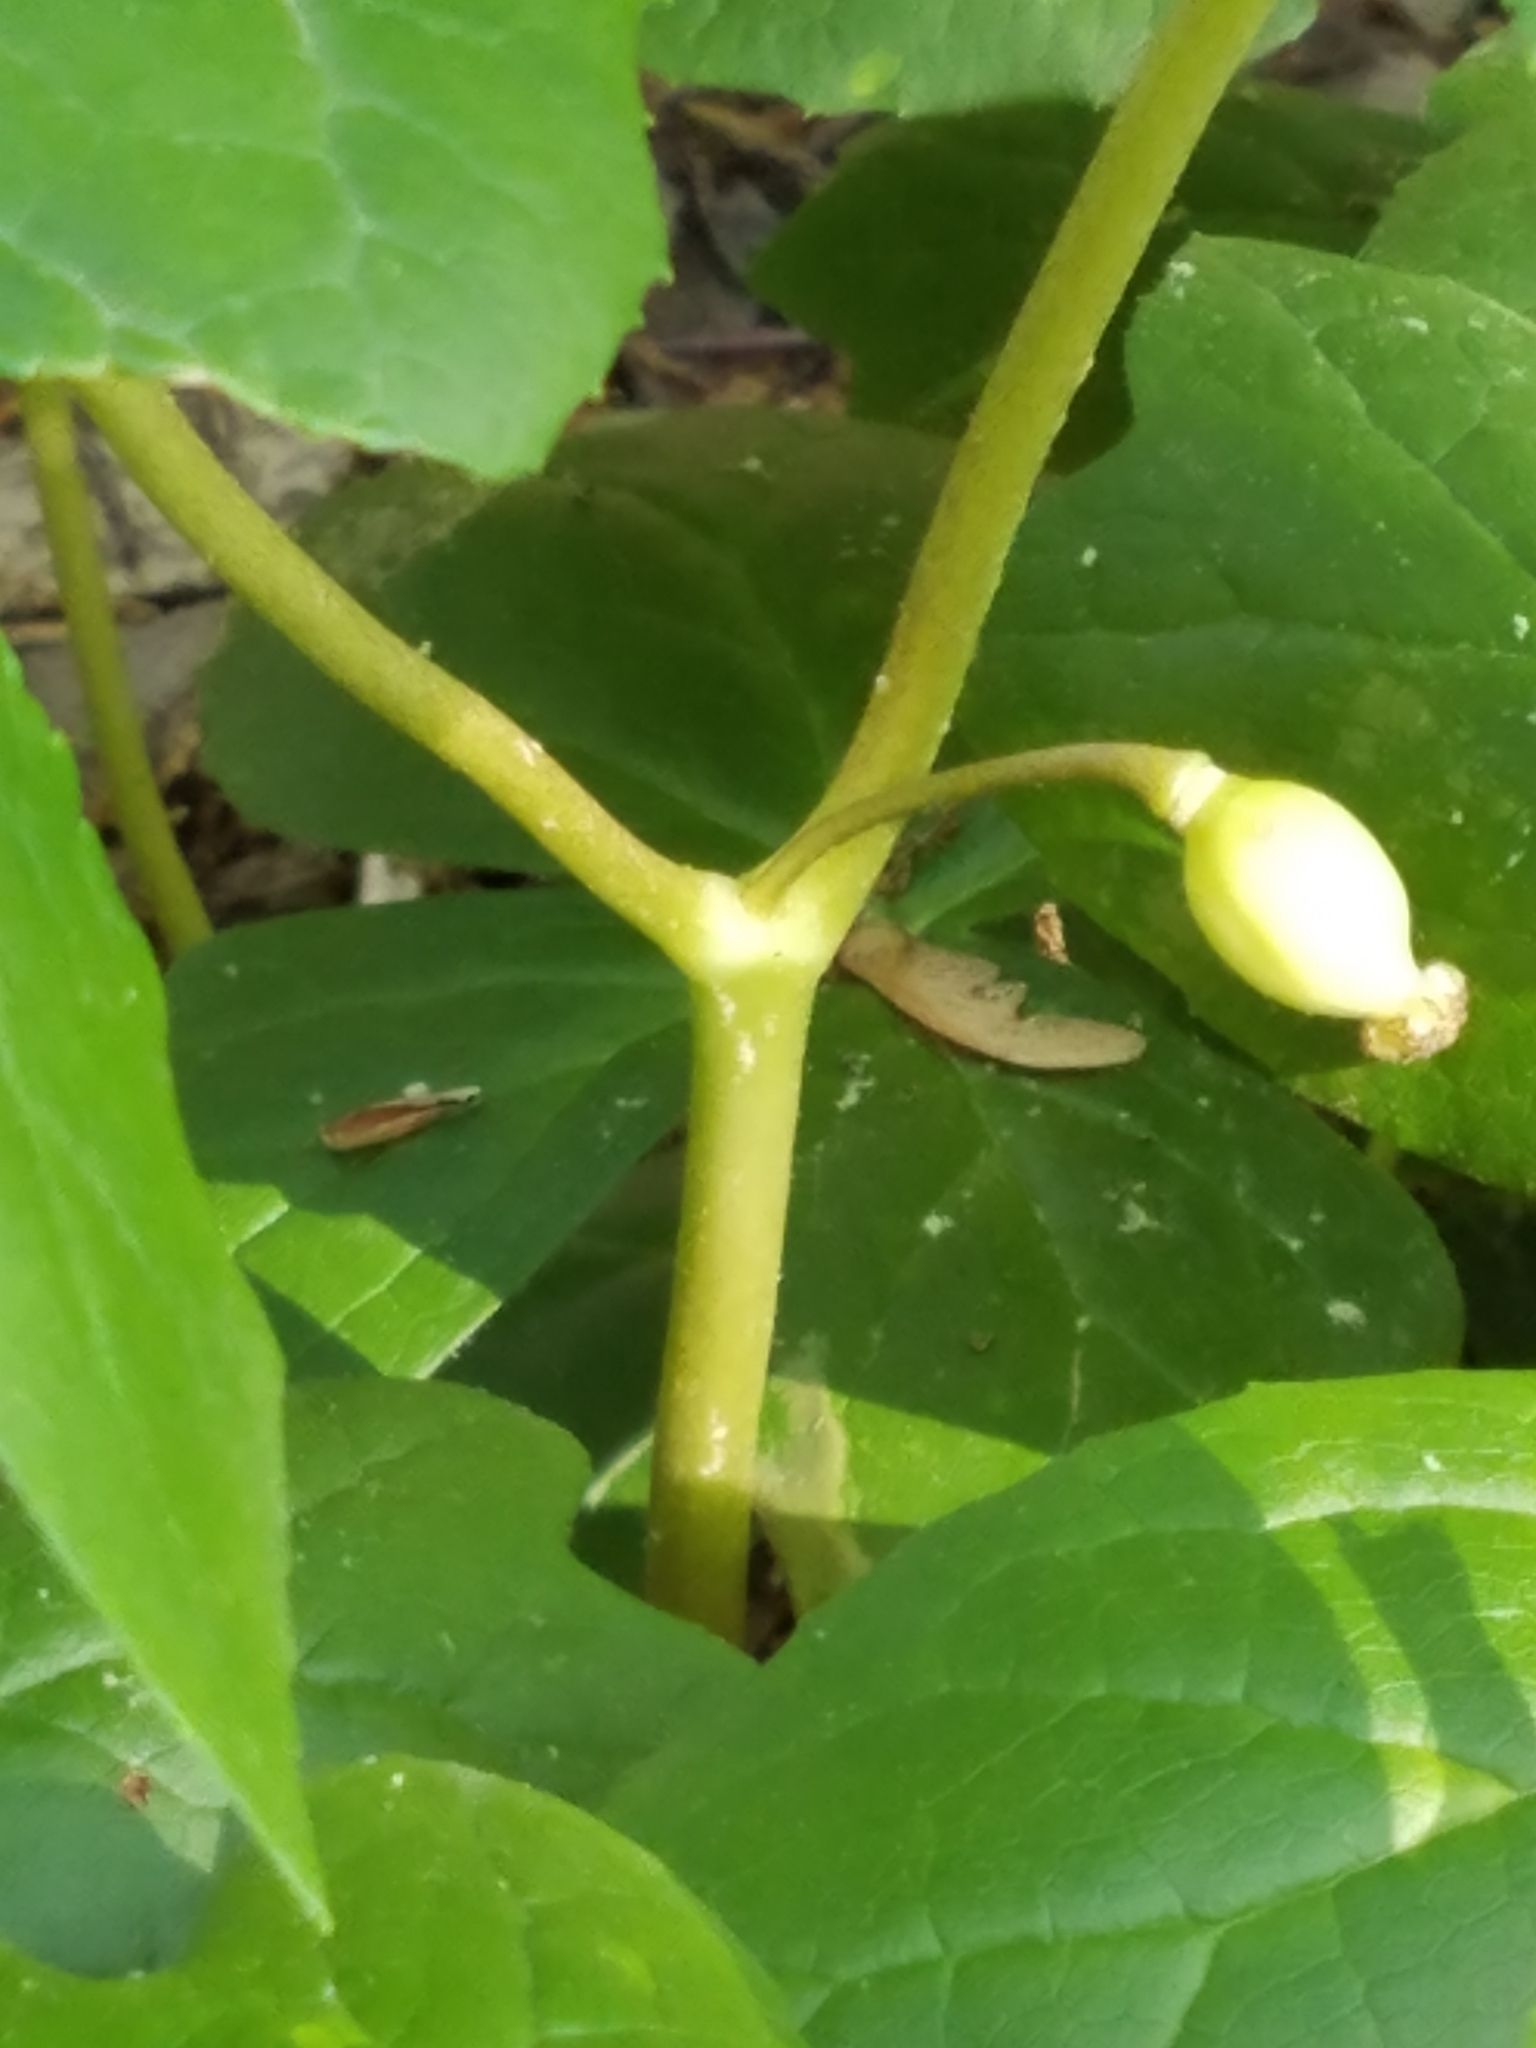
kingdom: Plantae
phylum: Tracheophyta
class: Magnoliopsida
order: Ranunculales
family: Berberidaceae
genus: Podophyllum
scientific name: Podophyllum peltatum
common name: Wild mandrake
